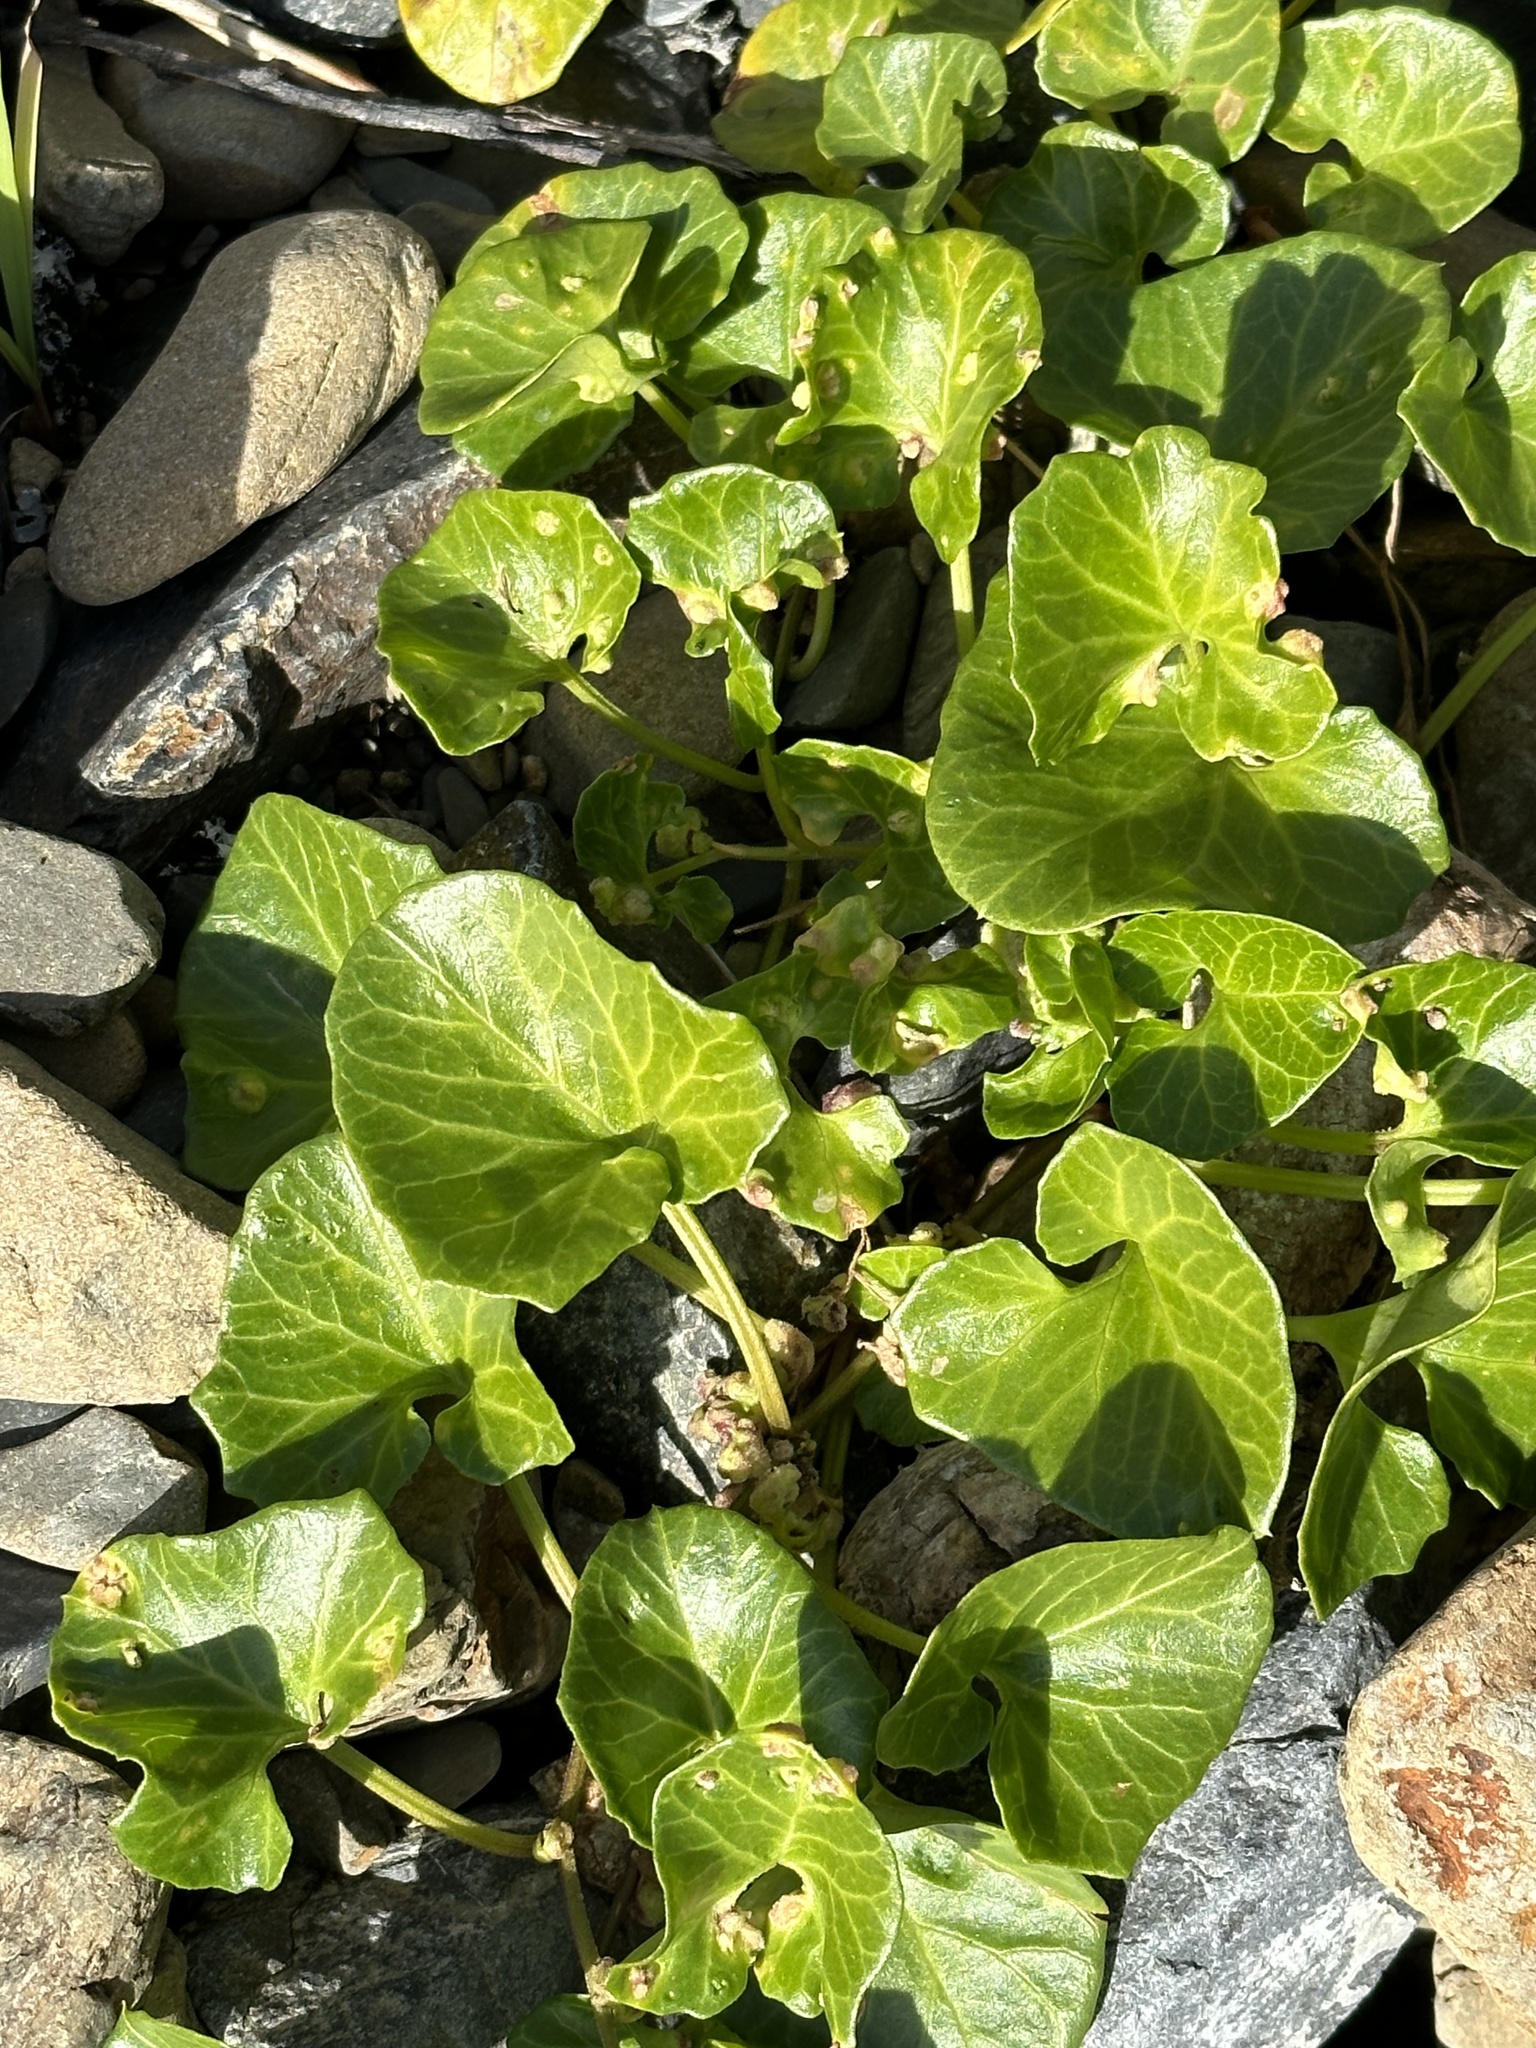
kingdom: Plantae
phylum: Tracheophyta
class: Magnoliopsida
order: Solanales
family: Convolvulaceae
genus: Calystegia
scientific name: Calystegia soldanella
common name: Sea bindweed
